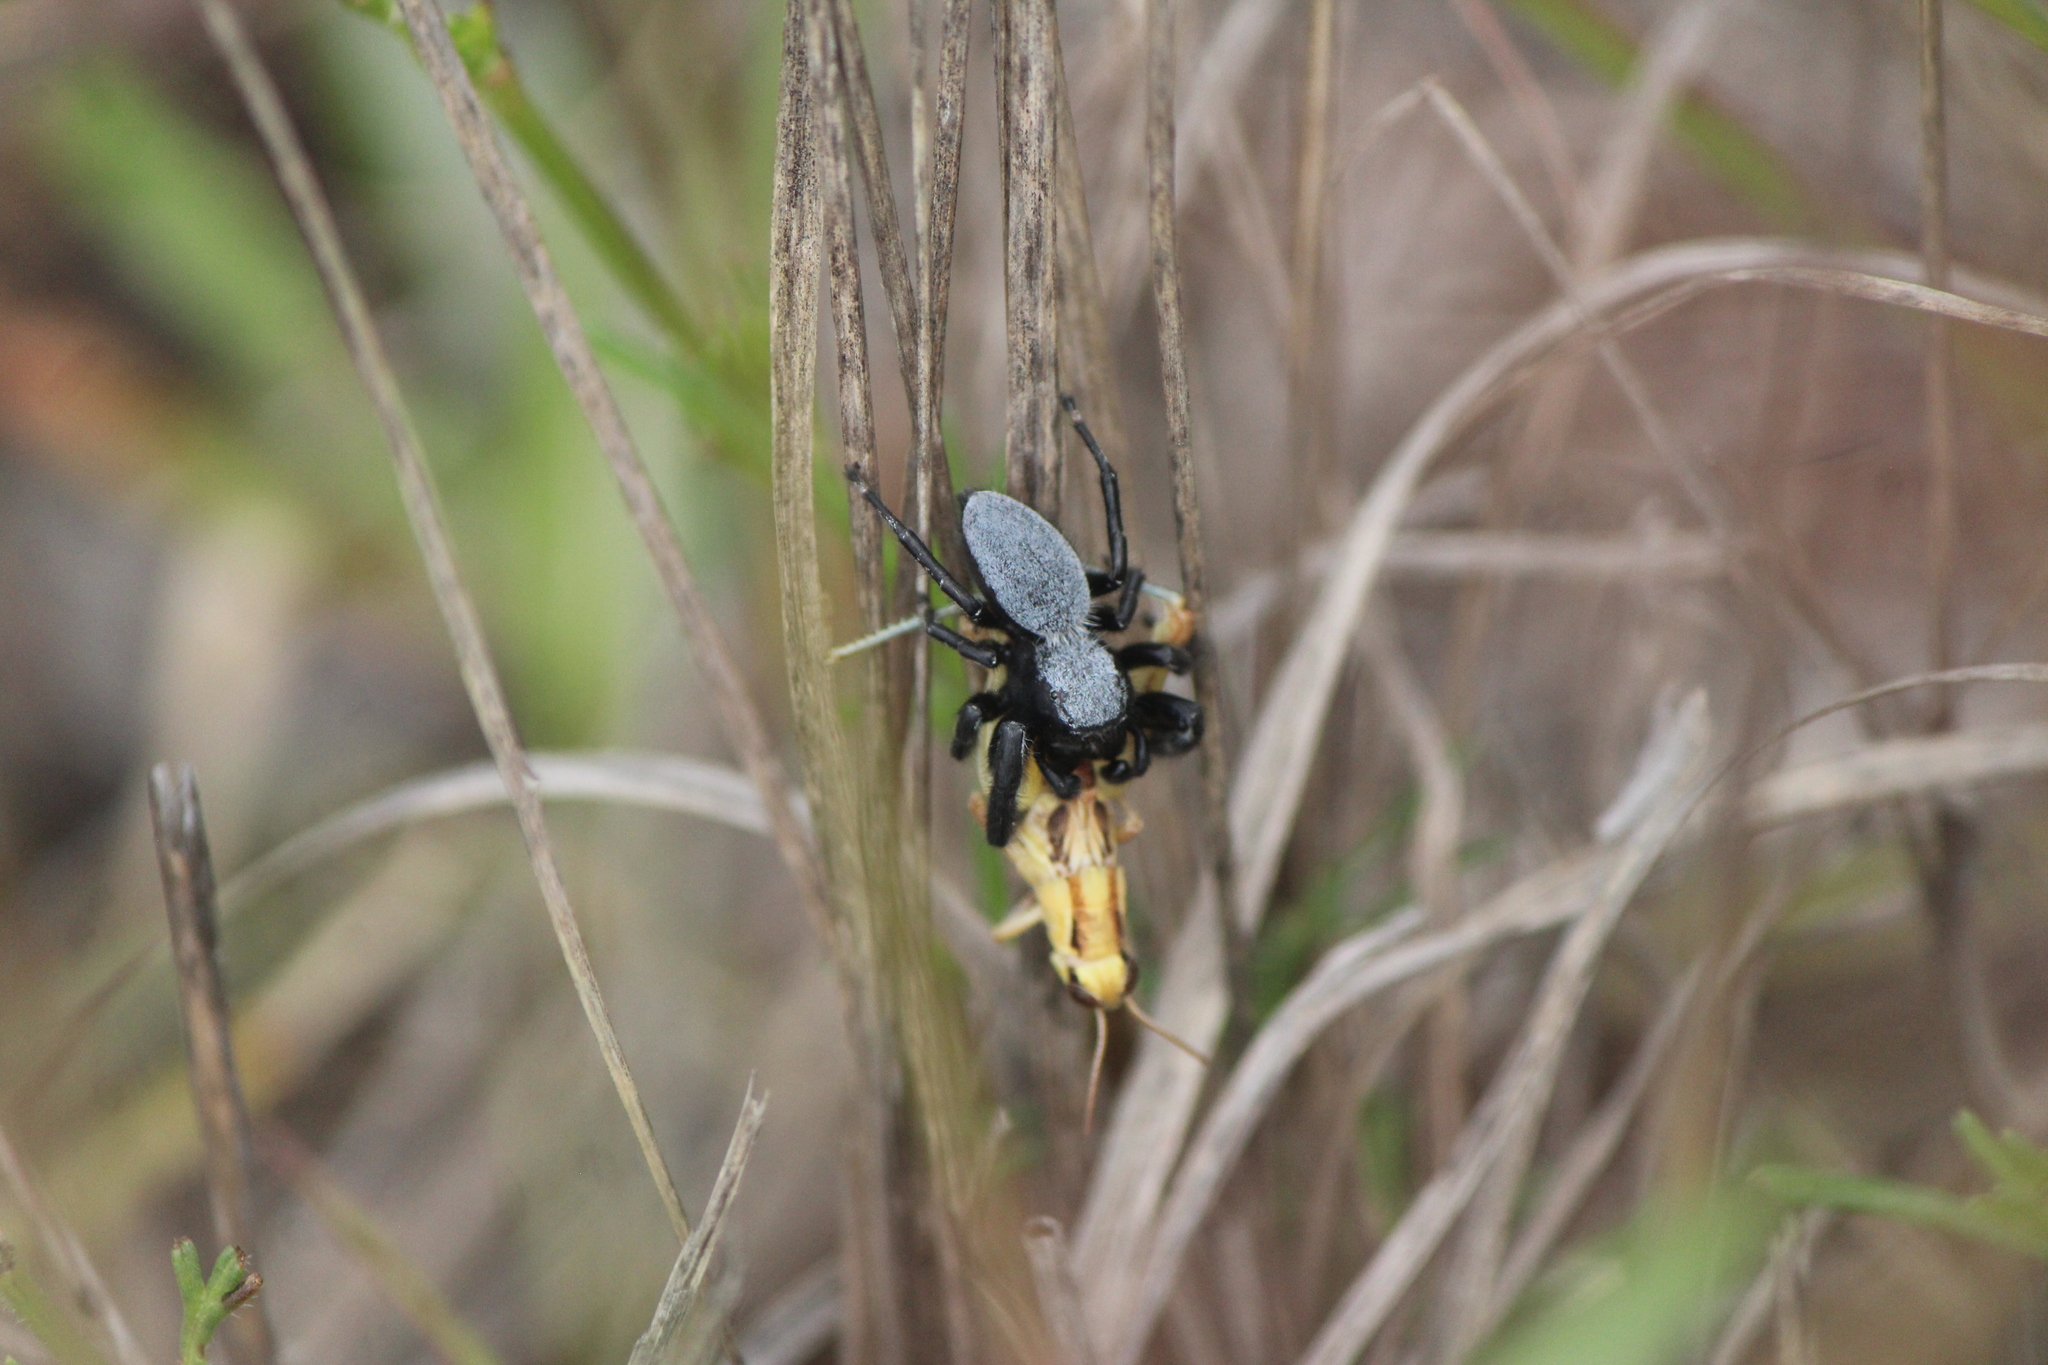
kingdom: Animalia
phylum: Arthropoda
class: Arachnida
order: Araneae
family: Salticidae
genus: Phidippus
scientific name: Phidippus octopunctatus
